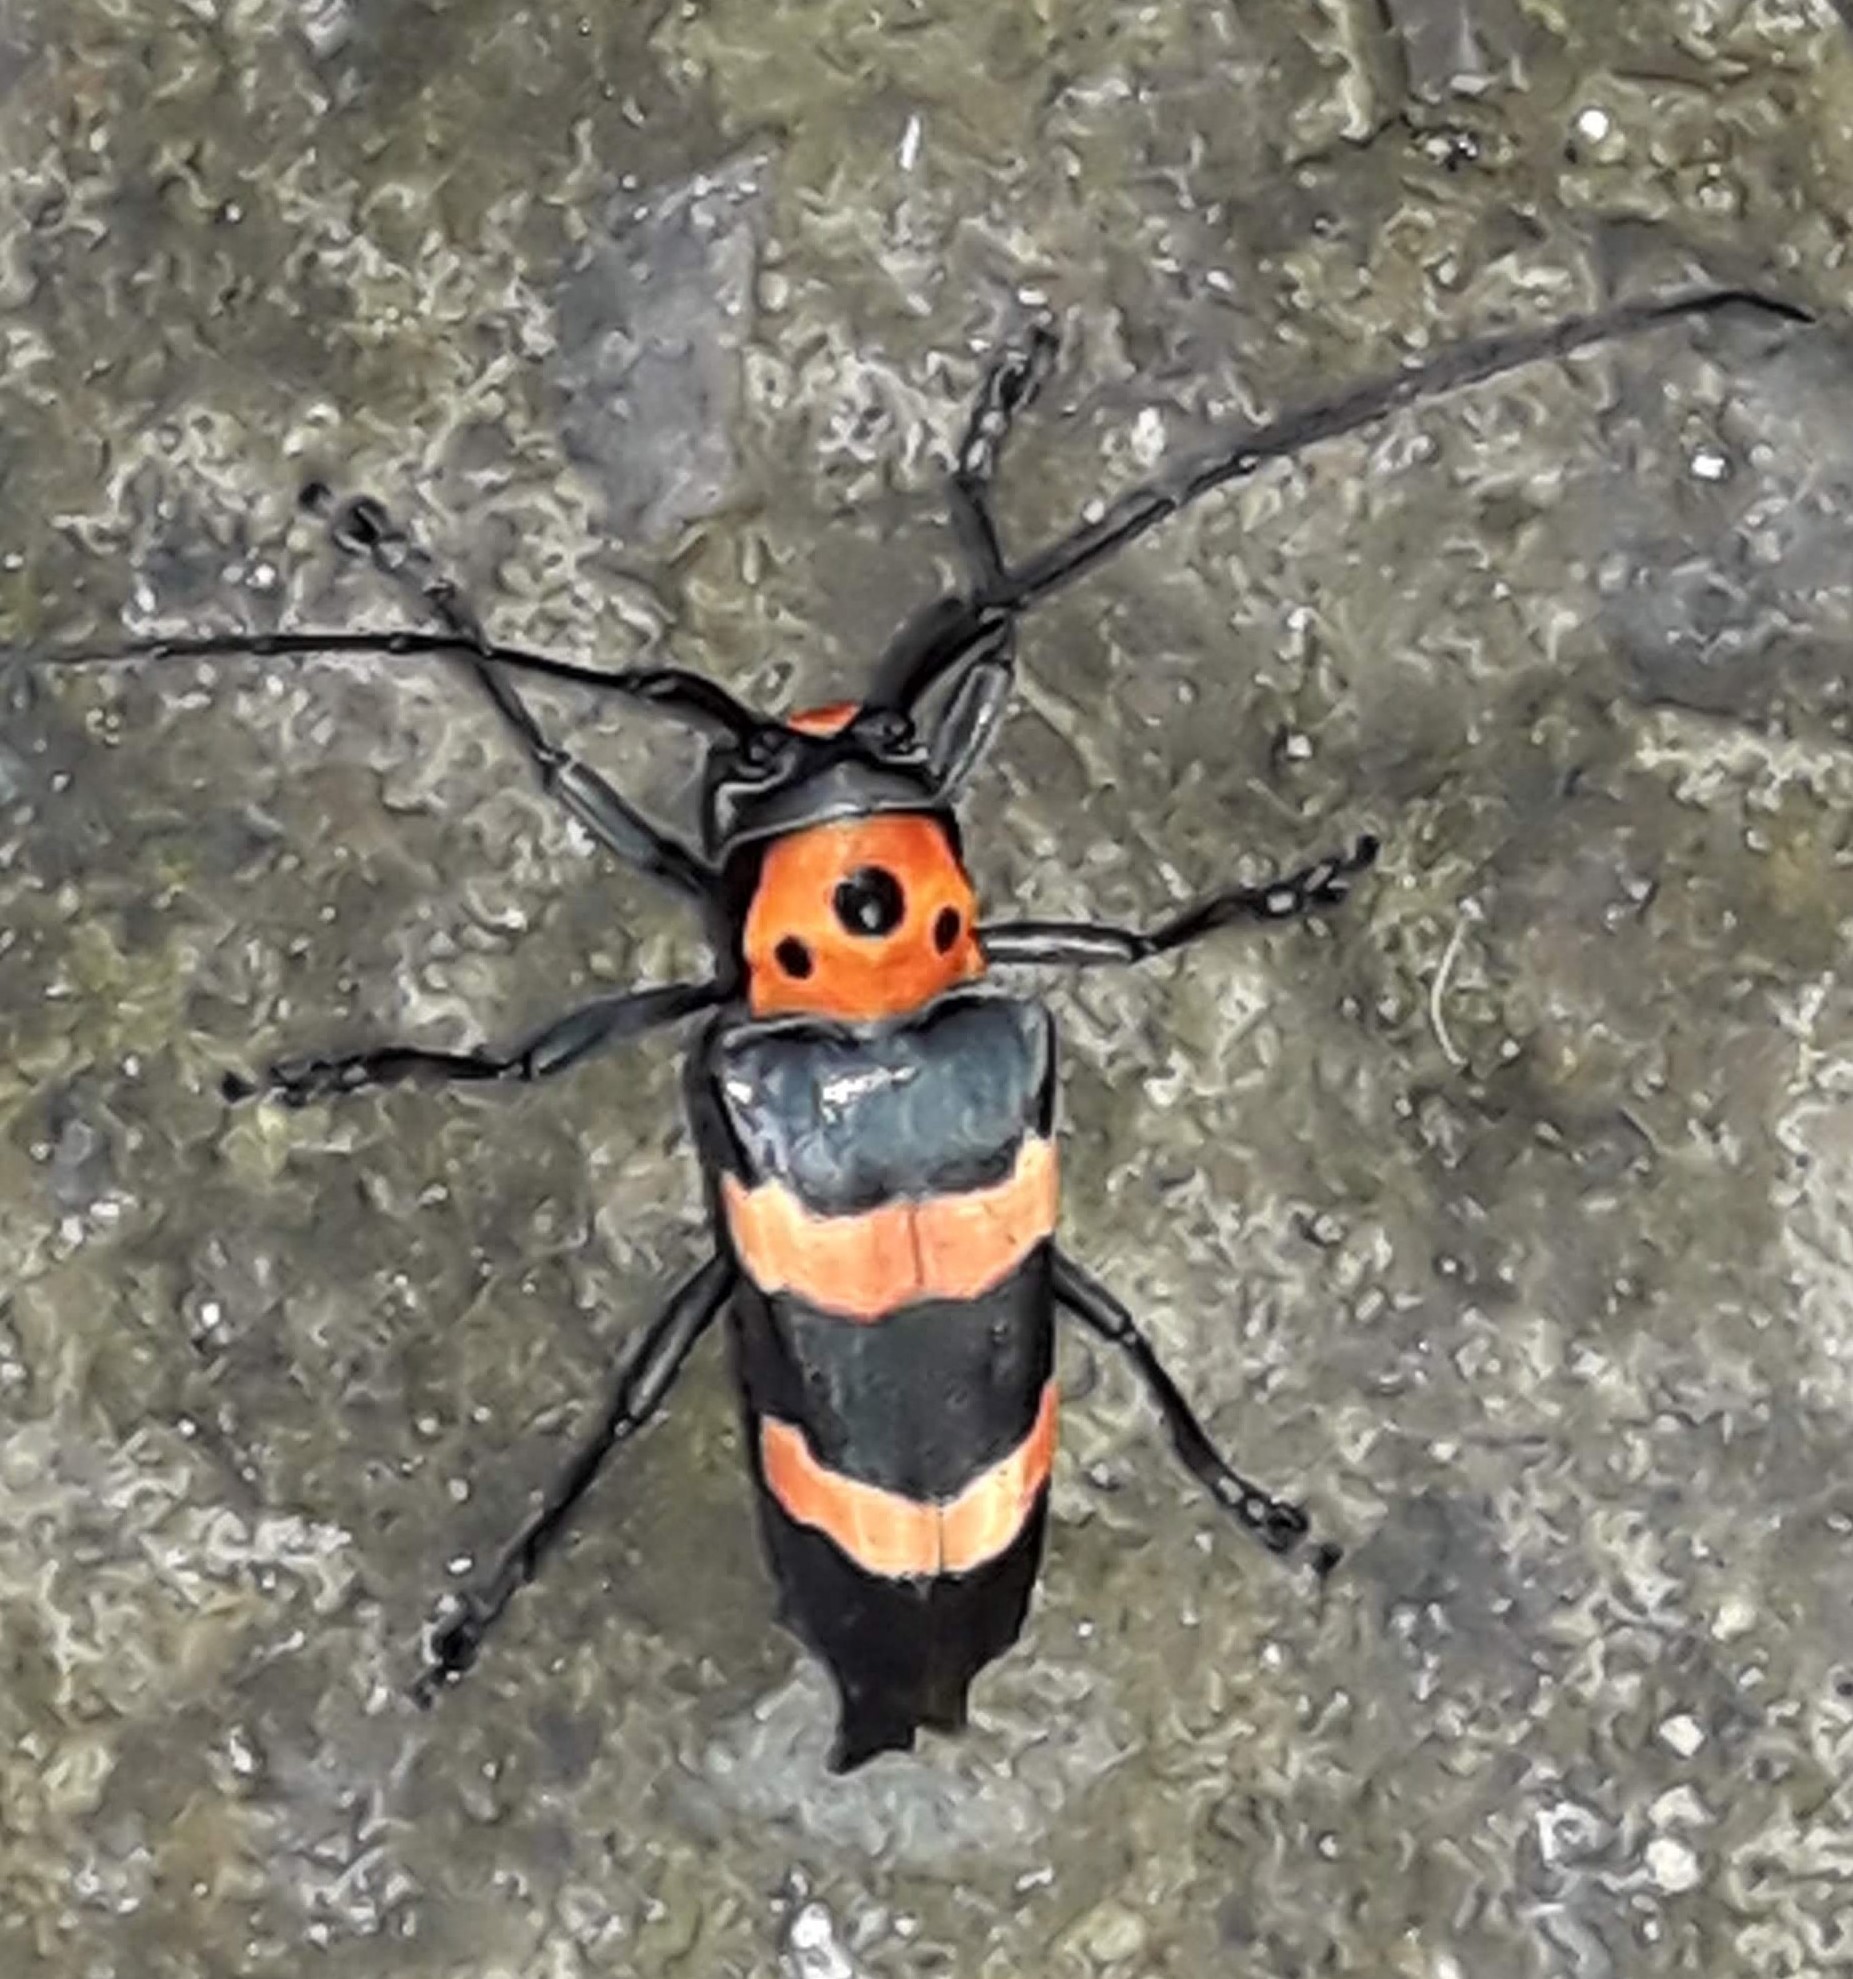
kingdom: Animalia
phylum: Arthropoda
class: Insecta
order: Coleoptera
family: Cerambycidae
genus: Oedudes
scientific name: Oedudes bifasciatus
